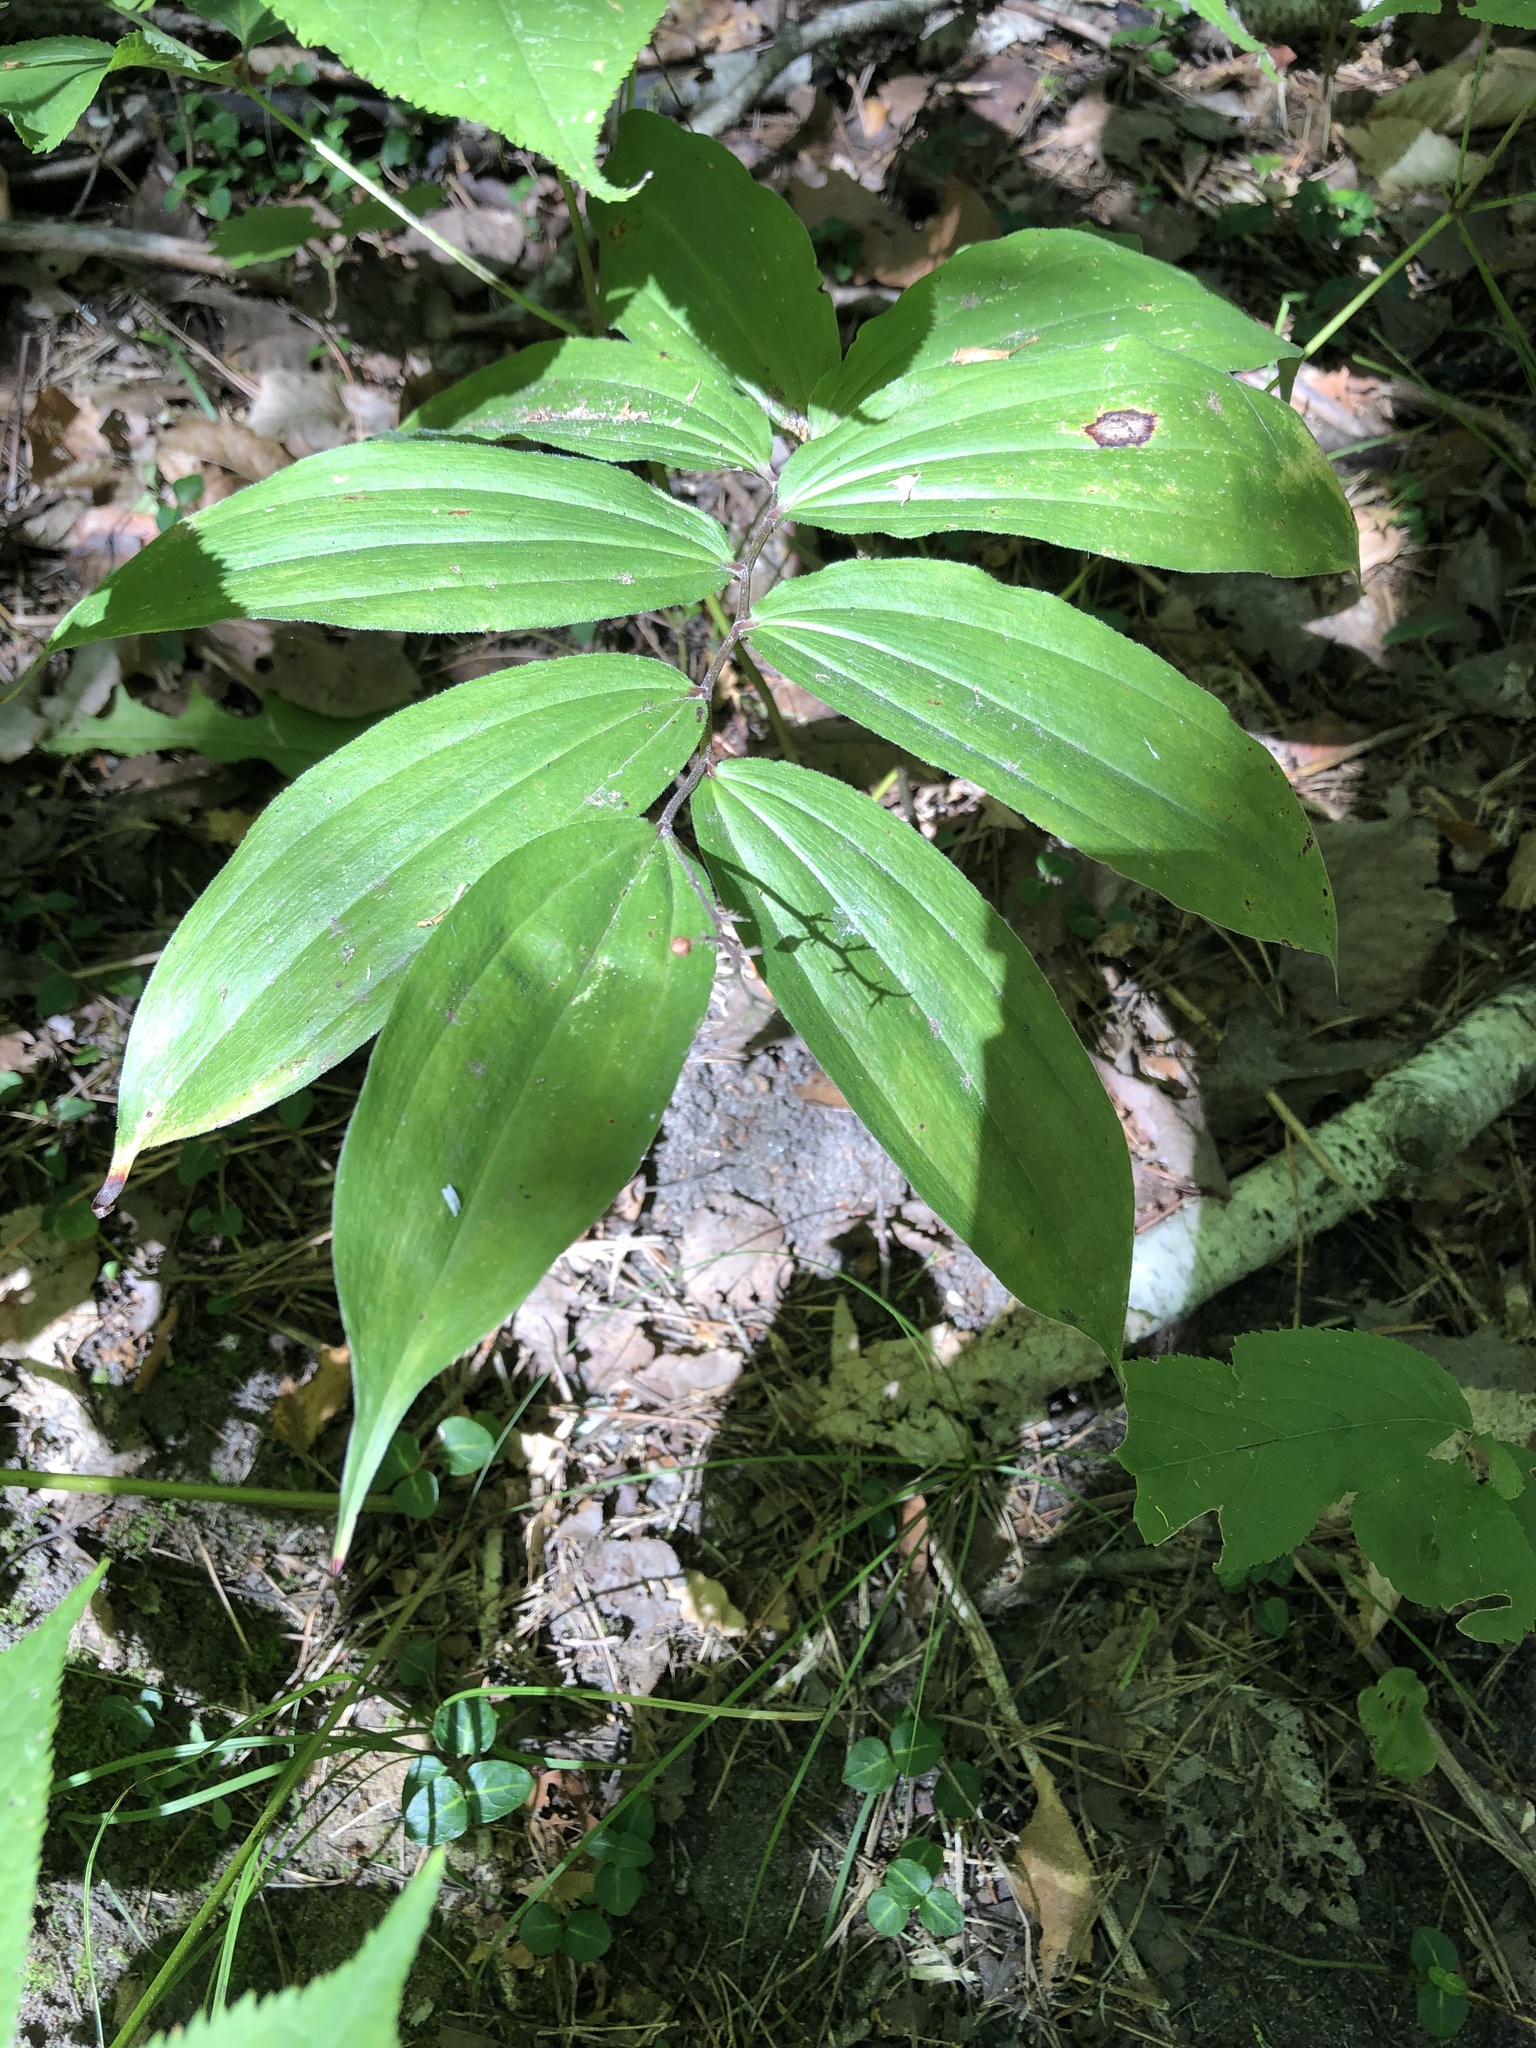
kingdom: Plantae
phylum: Tracheophyta
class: Liliopsida
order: Asparagales
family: Asparagaceae
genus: Maianthemum
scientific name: Maianthemum racemosum
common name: False spikenard
